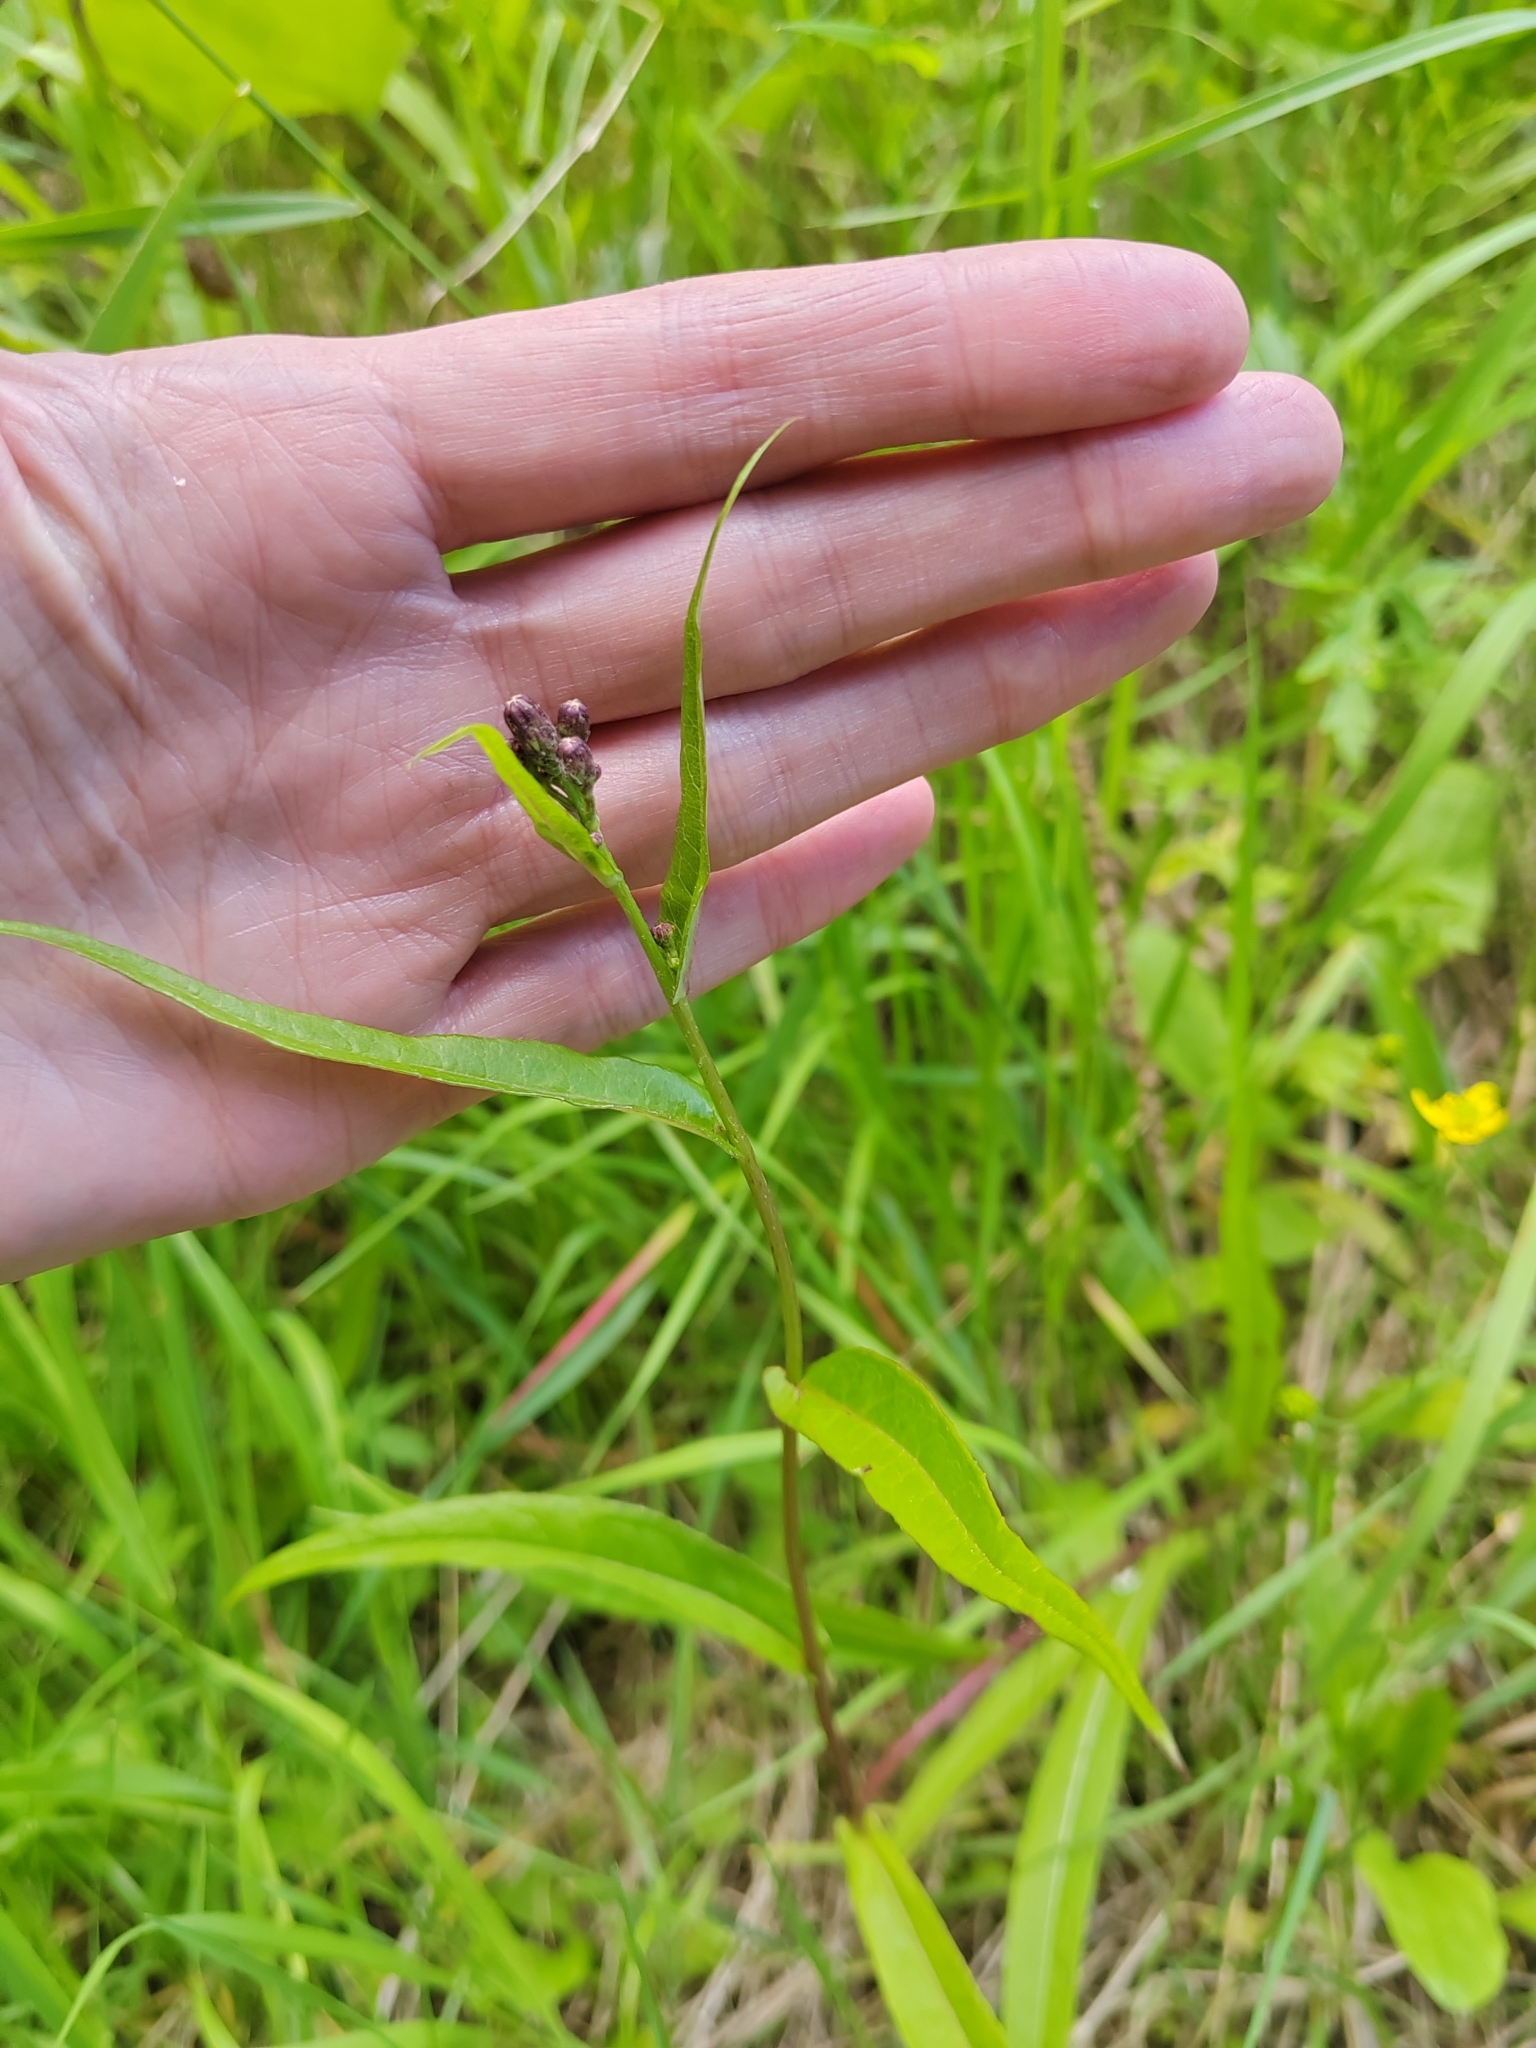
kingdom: Plantae
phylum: Tracheophyta
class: Magnoliopsida
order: Asterales
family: Asteraceae
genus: Lactuca
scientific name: Lactuca sibirica
